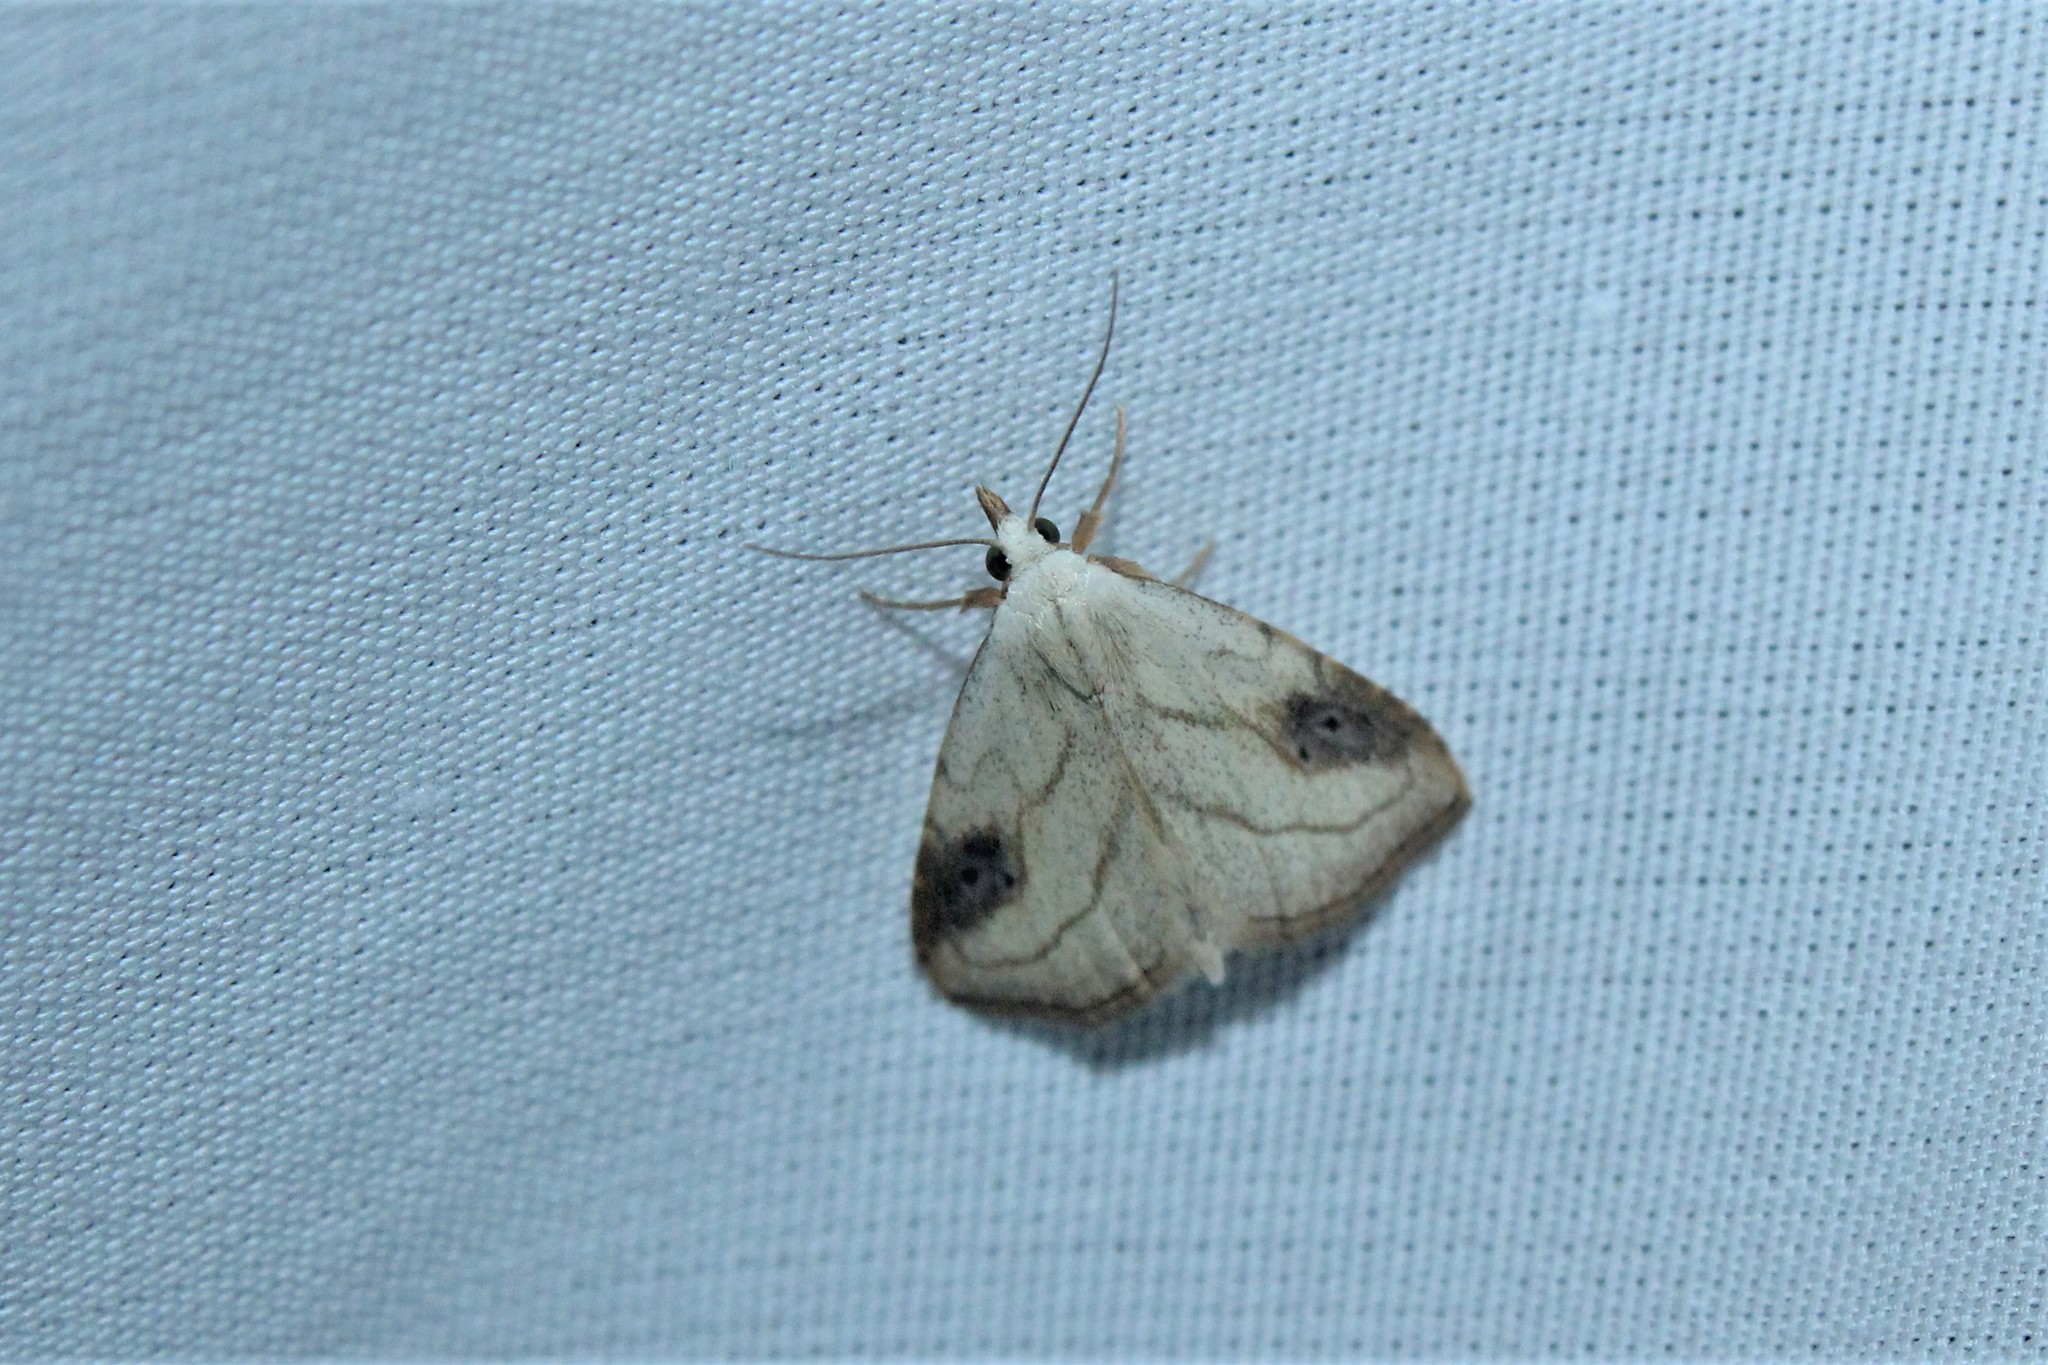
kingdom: Animalia
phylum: Arthropoda
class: Insecta
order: Lepidoptera
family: Erebidae
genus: Rivula
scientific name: Rivula propinqualis
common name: Spotted grass moth
